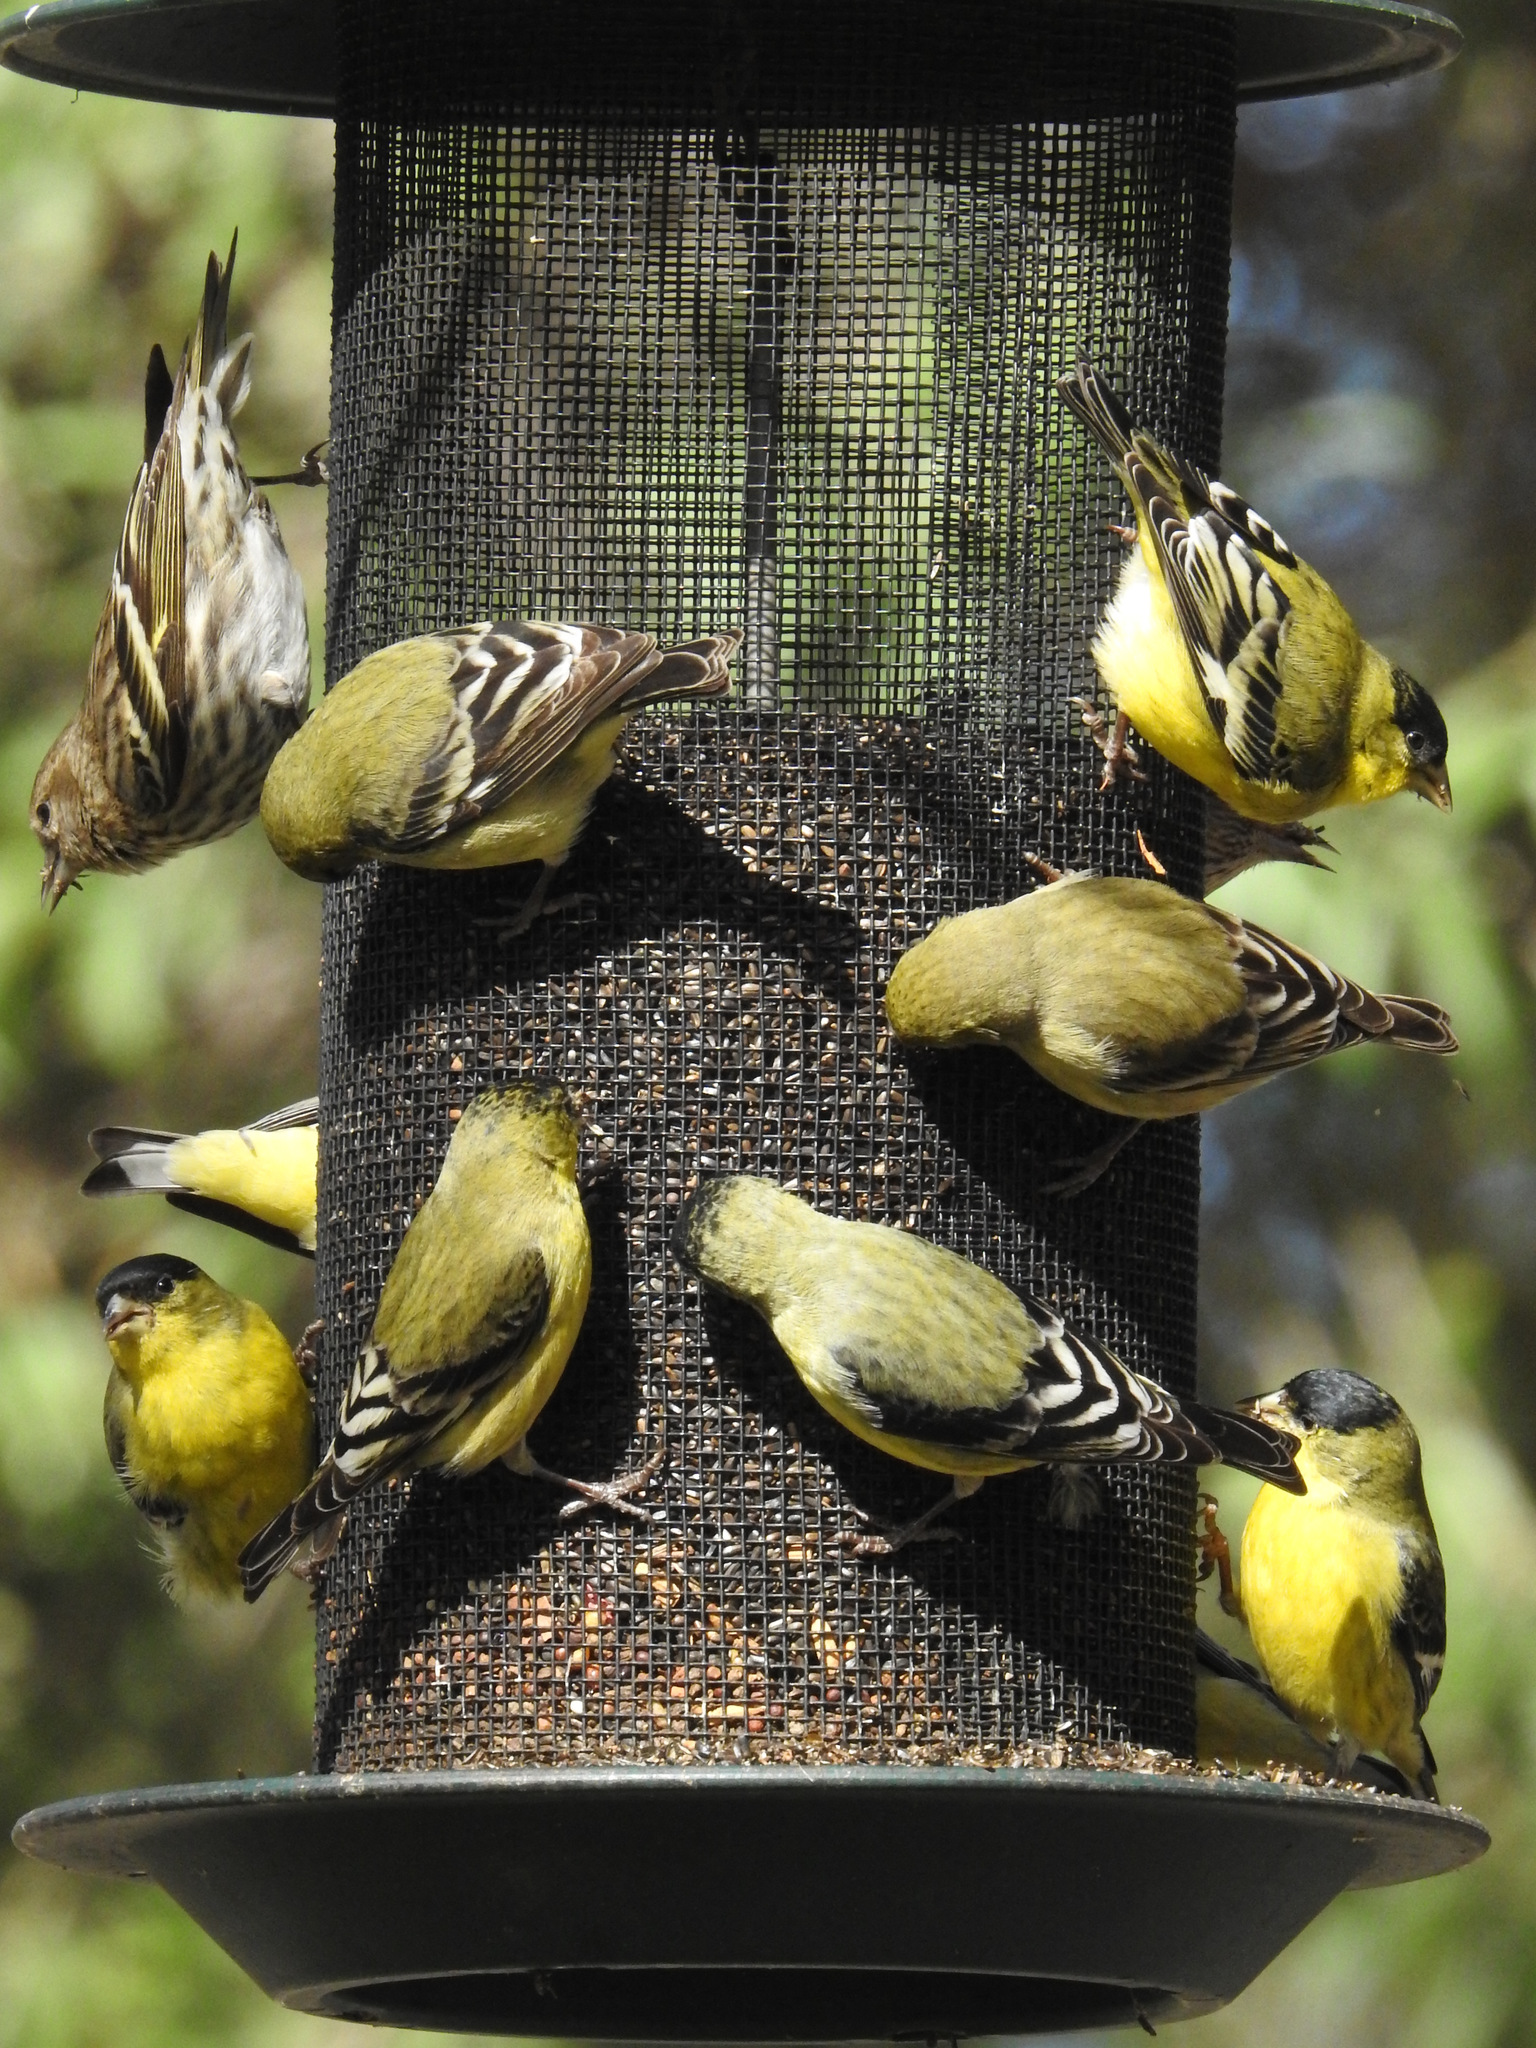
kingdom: Animalia
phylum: Chordata
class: Aves
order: Passeriformes
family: Fringillidae
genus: Spinus
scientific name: Spinus psaltria
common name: Lesser goldfinch
